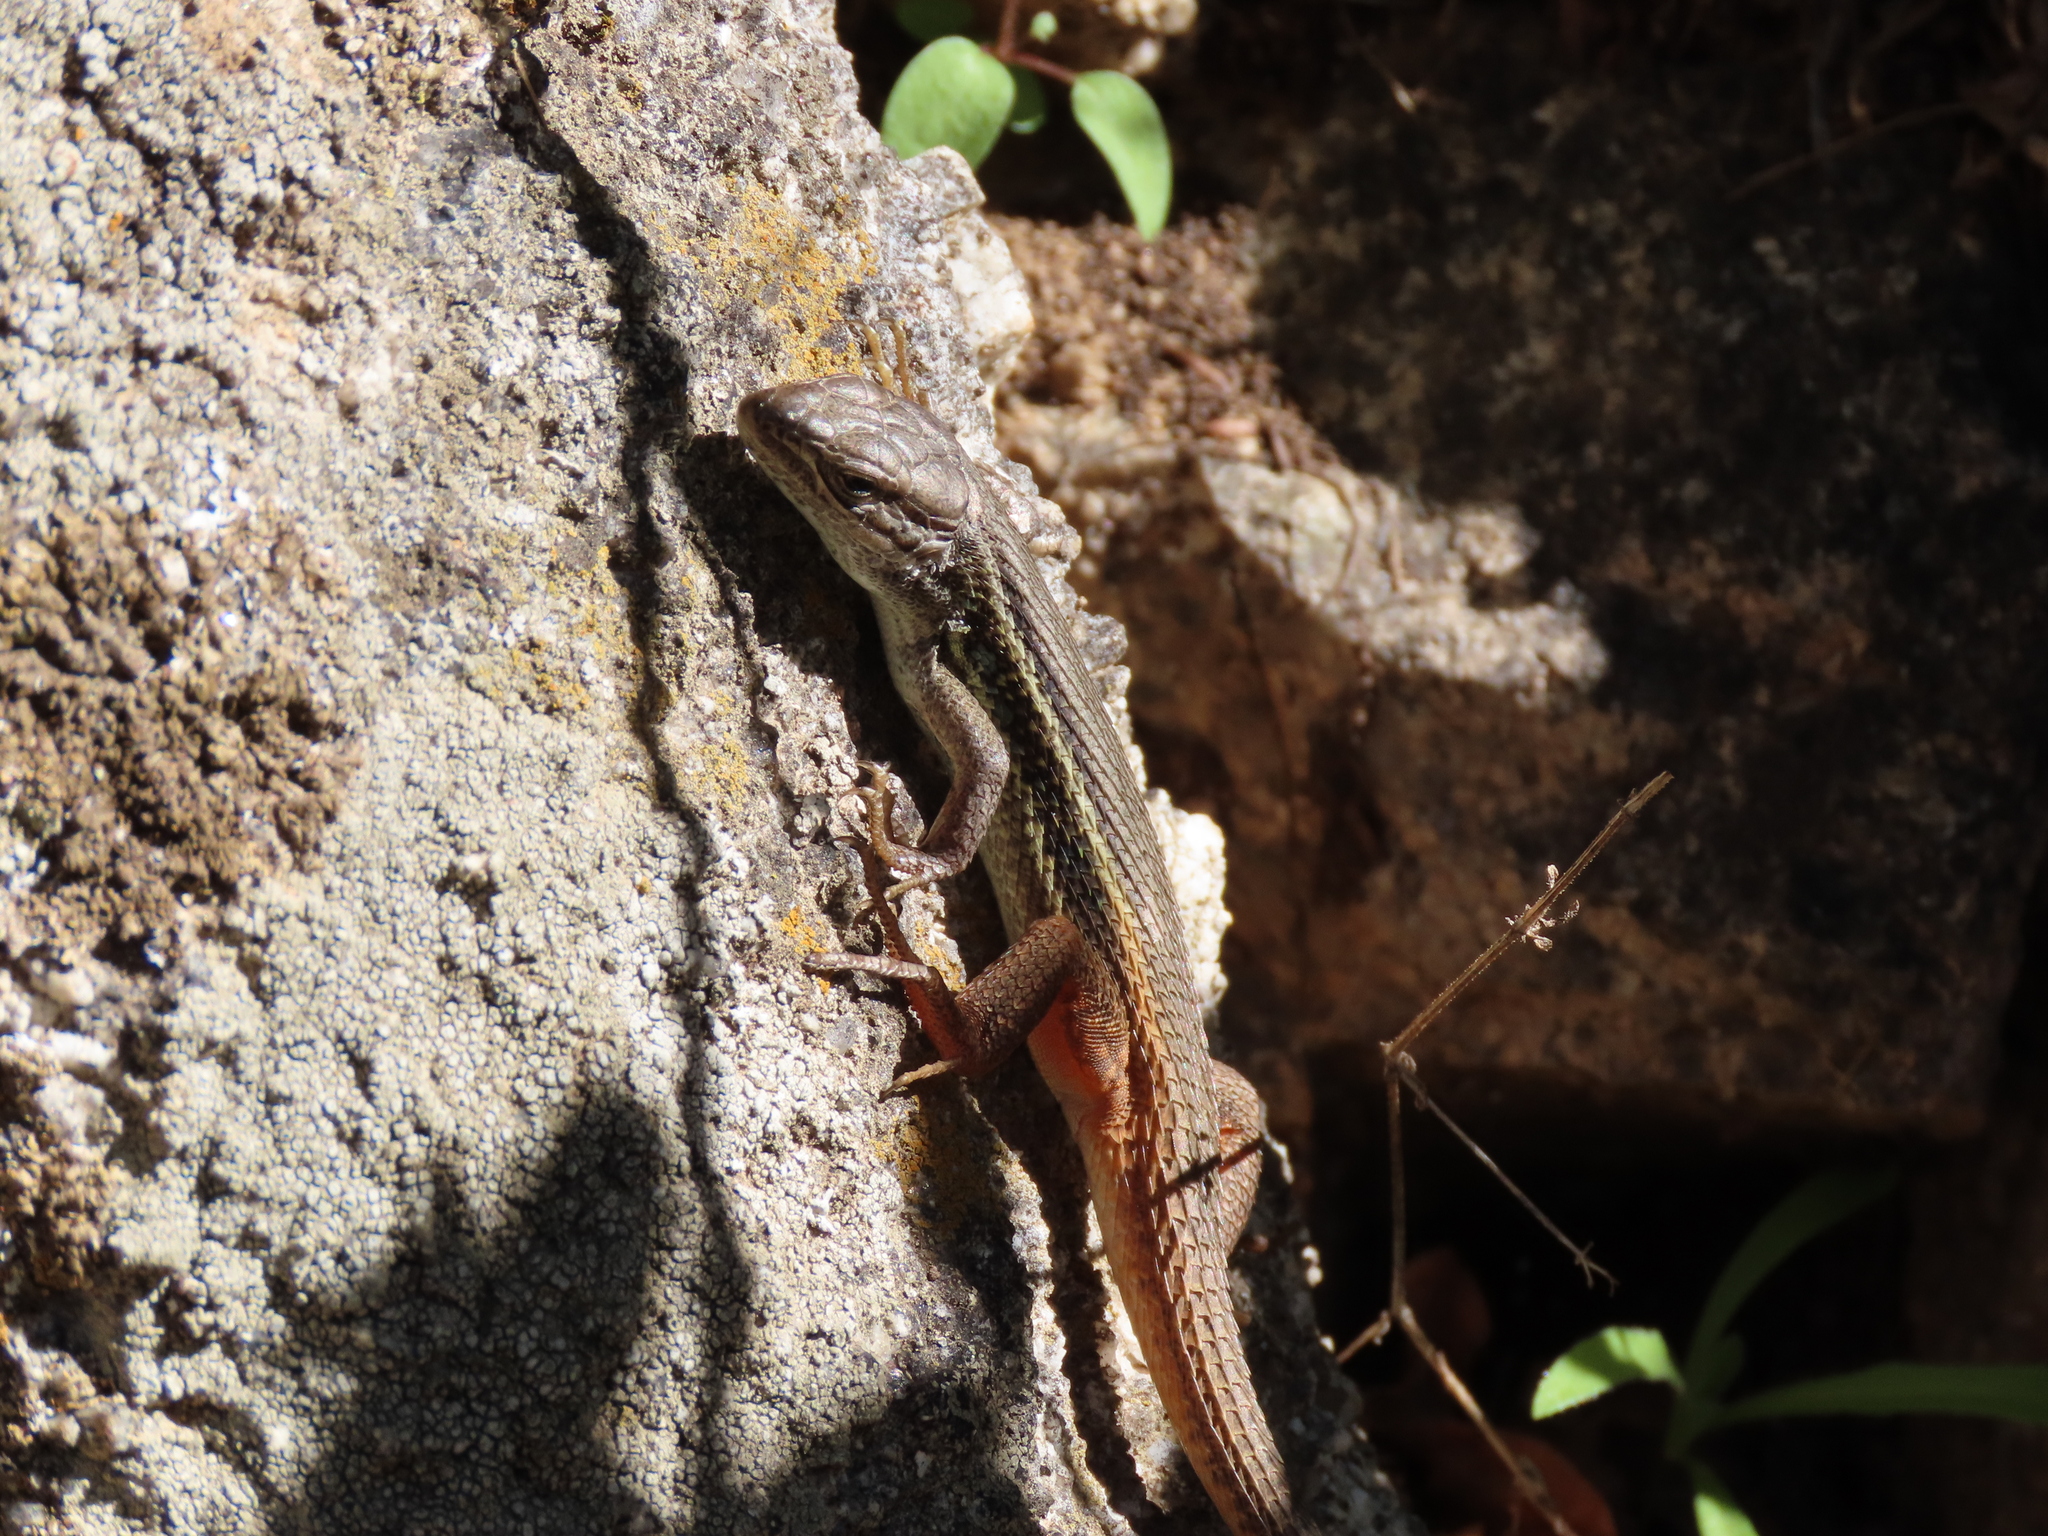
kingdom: Animalia
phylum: Chordata
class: Squamata
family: Lacertidae
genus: Psammodromus
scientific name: Psammodromus algirus
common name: Algerian psammodromus
